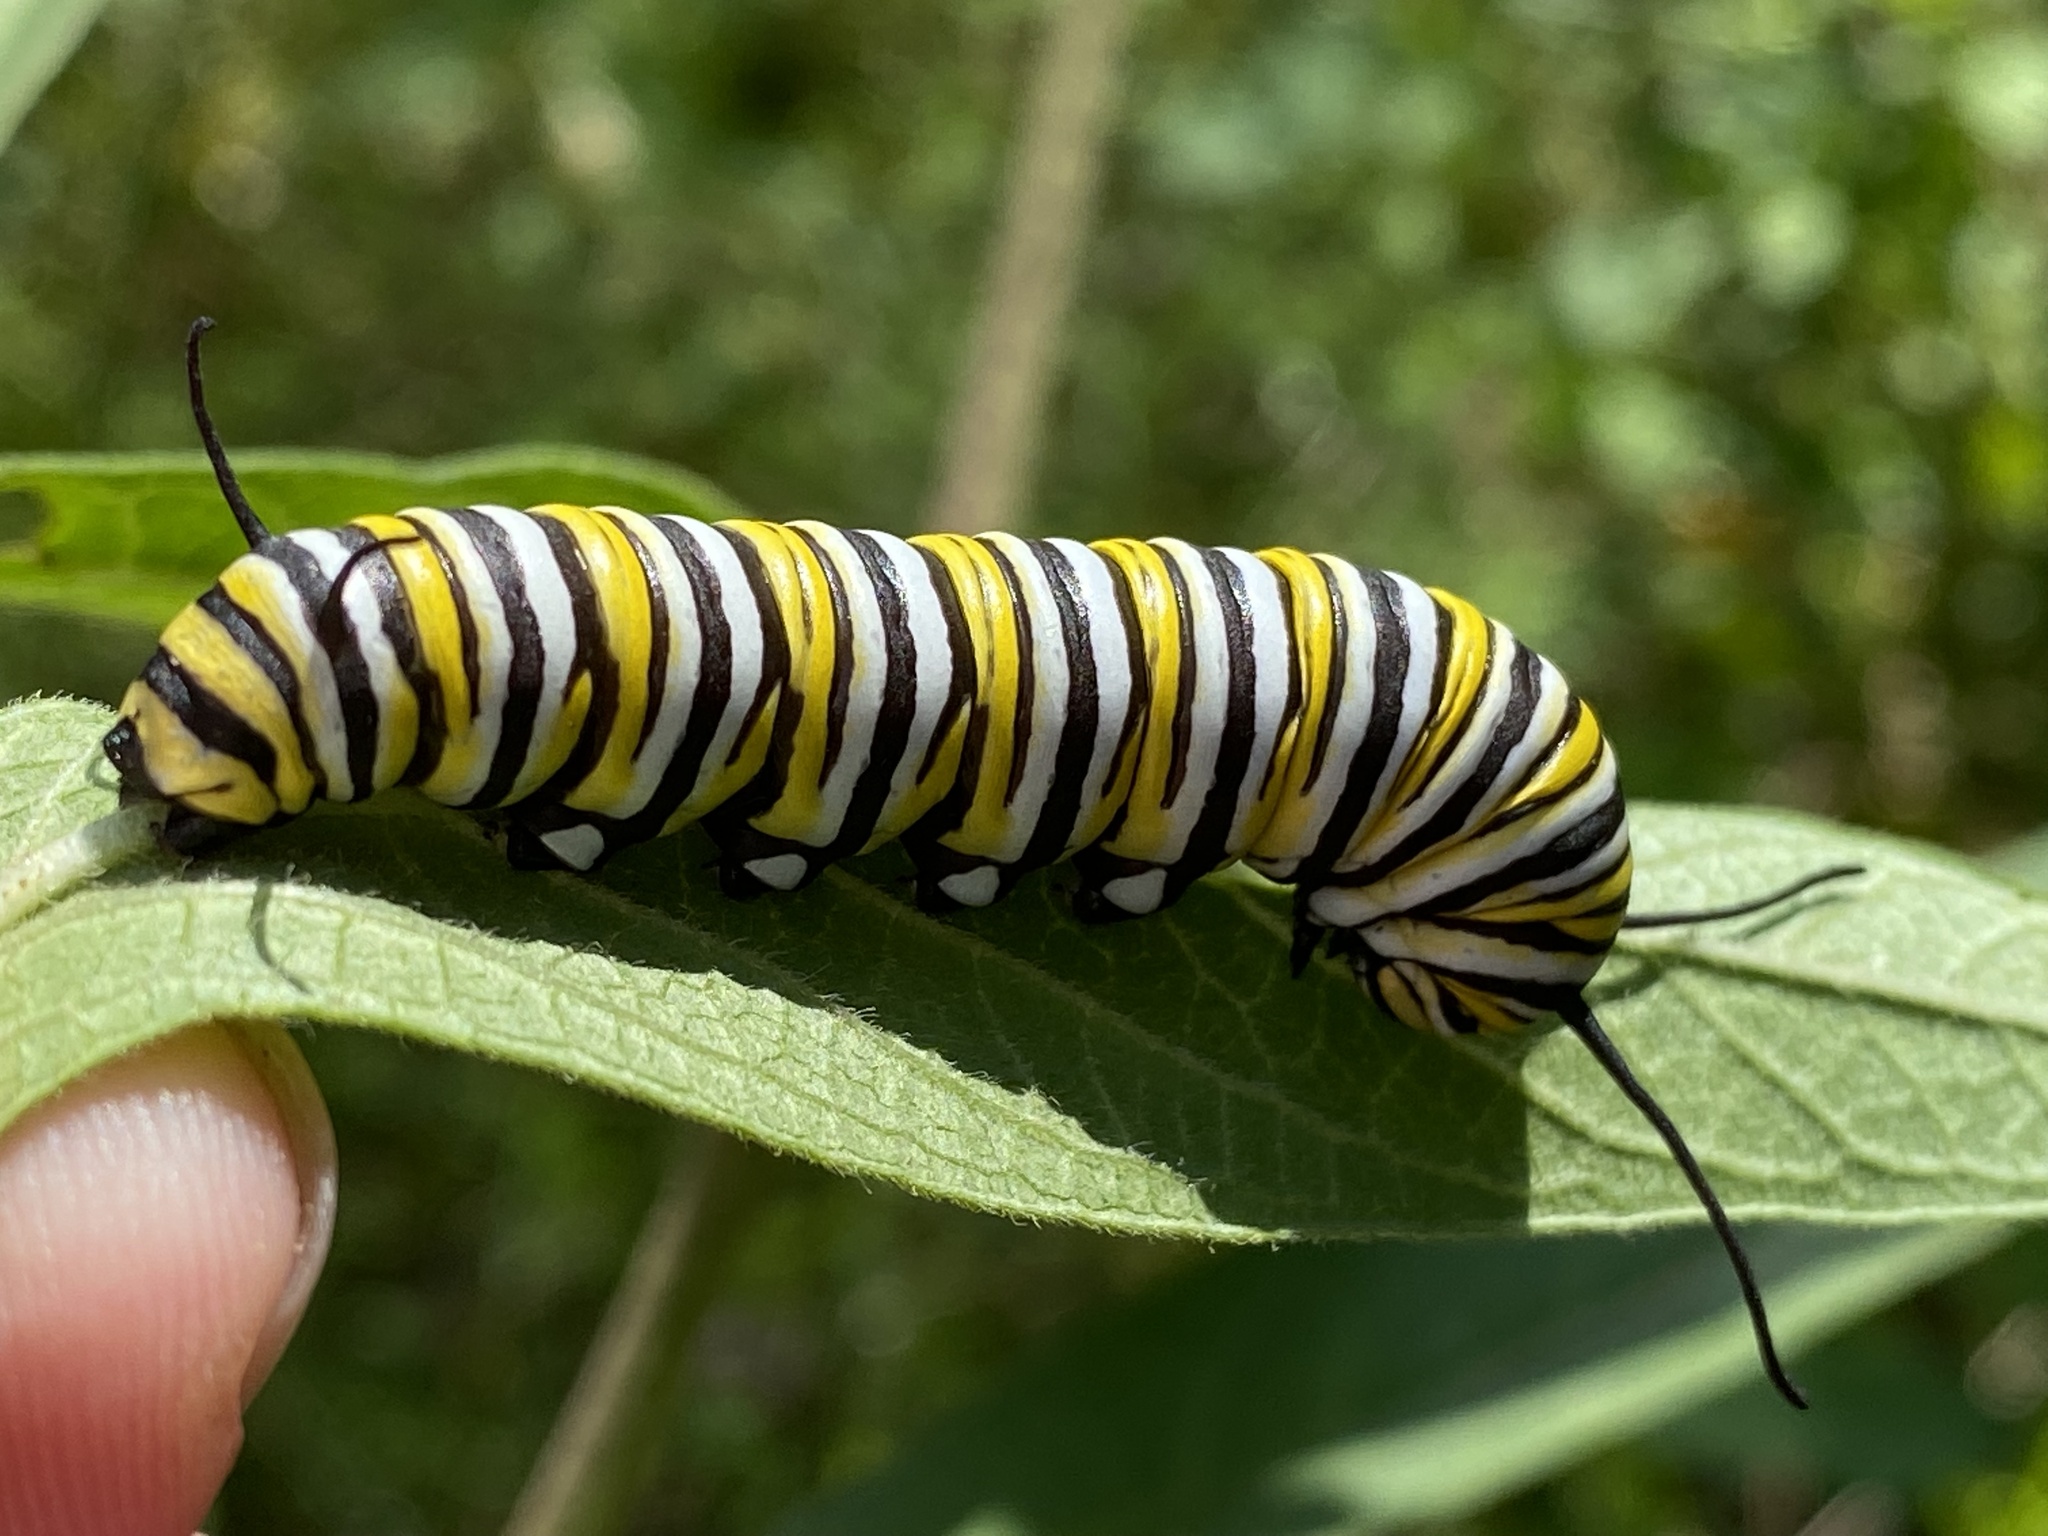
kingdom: Animalia
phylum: Arthropoda
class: Insecta
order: Lepidoptera
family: Nymphalidae
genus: Danaus
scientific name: Danaus plexippus
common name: Monarch
